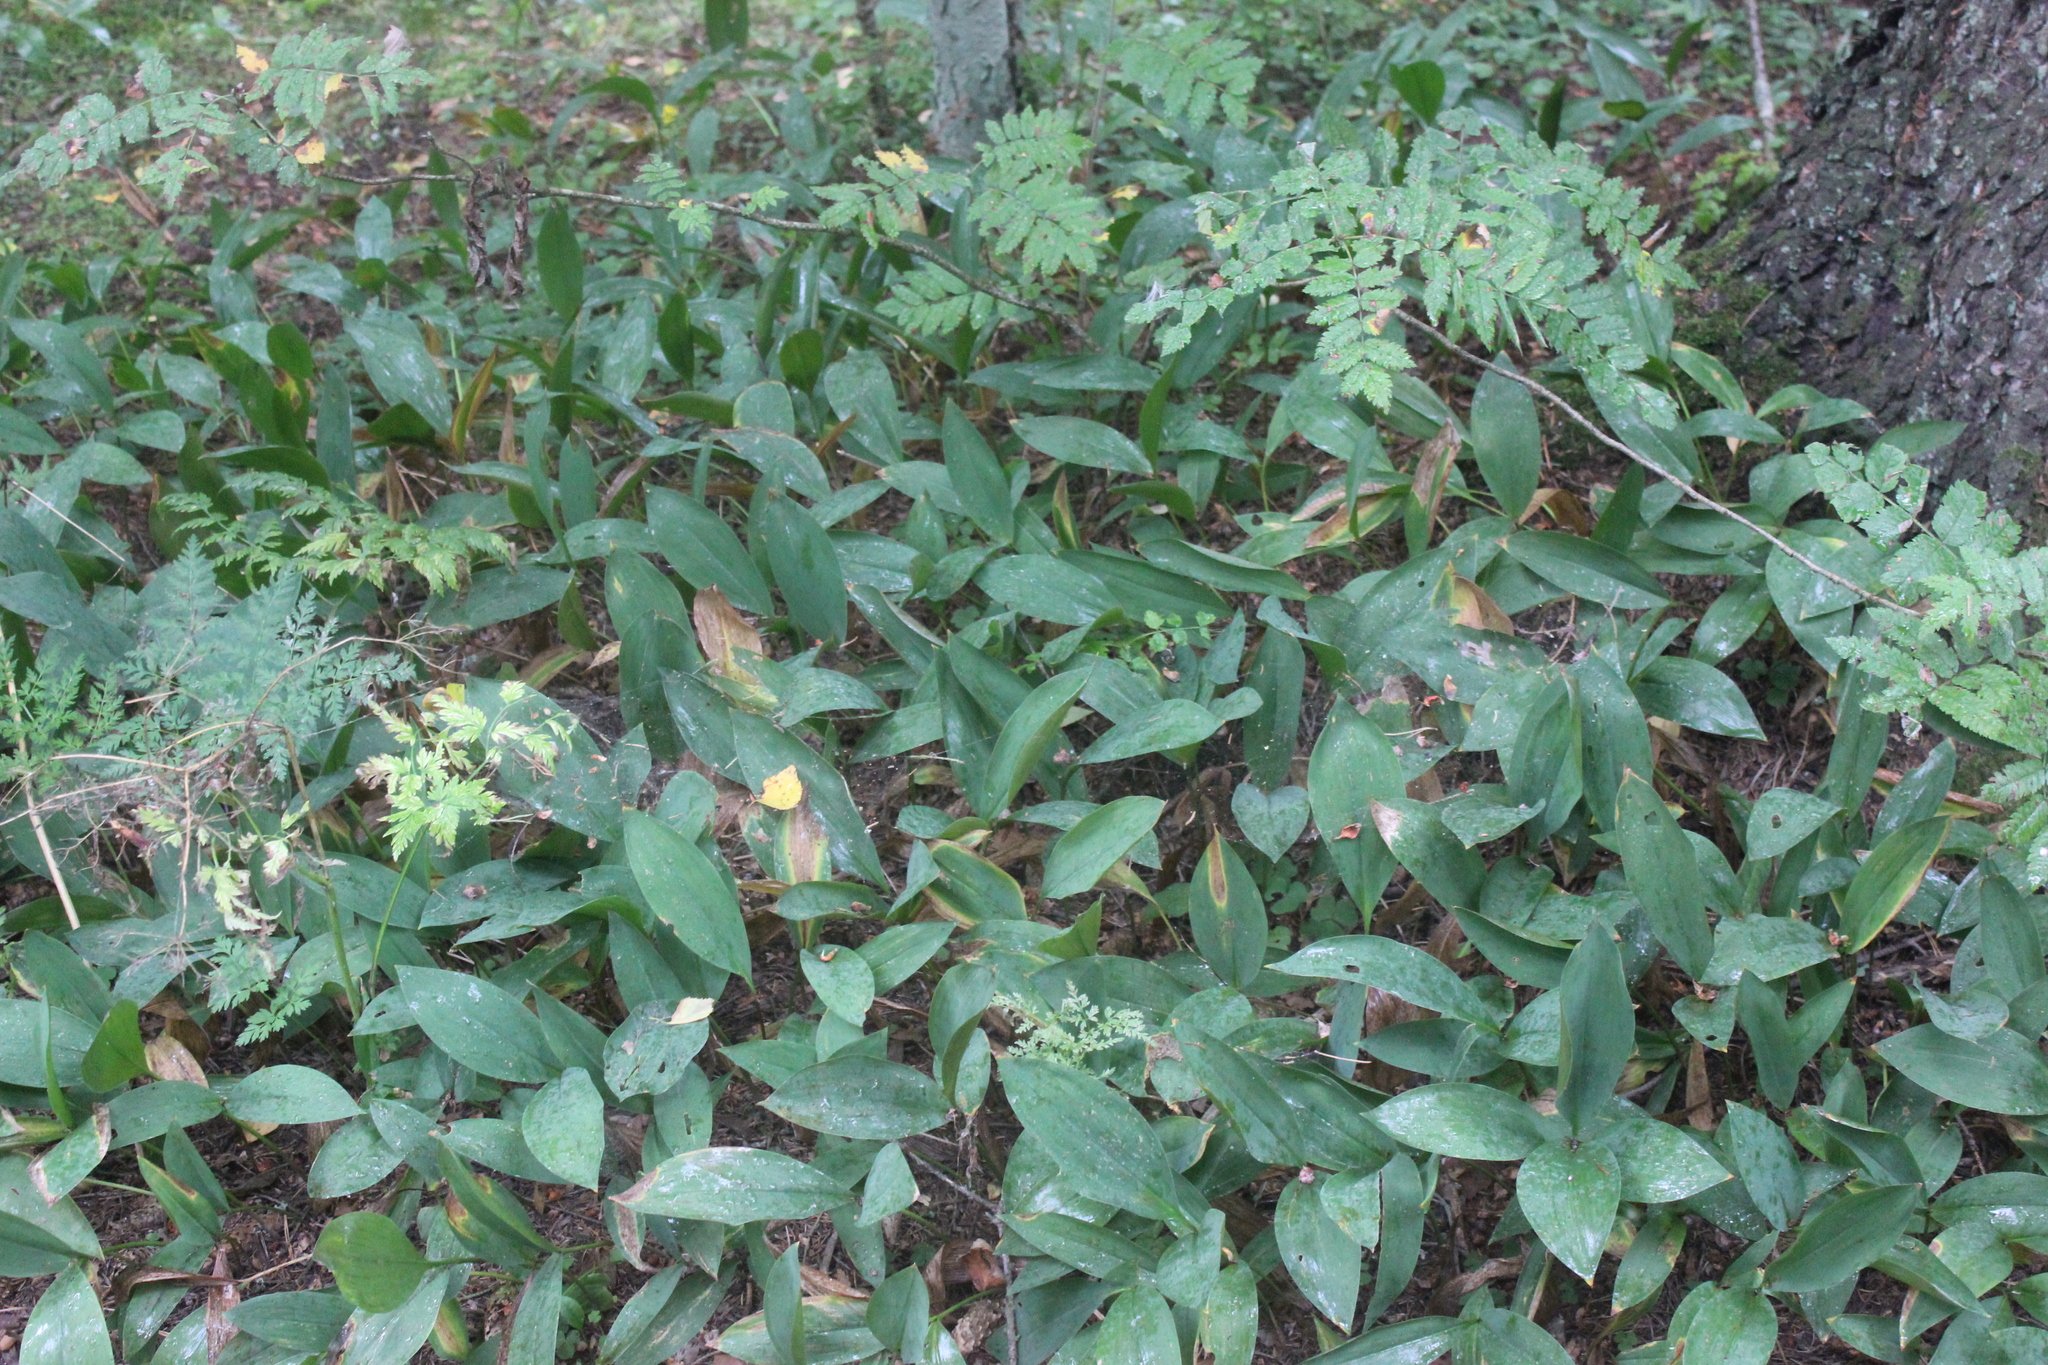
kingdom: Plantae
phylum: Tracheophyta
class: Liliopsida
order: Asparagales
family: Asparagaceae
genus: Convallaria
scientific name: Convallaria majalis
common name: Lily-of-the-valley
